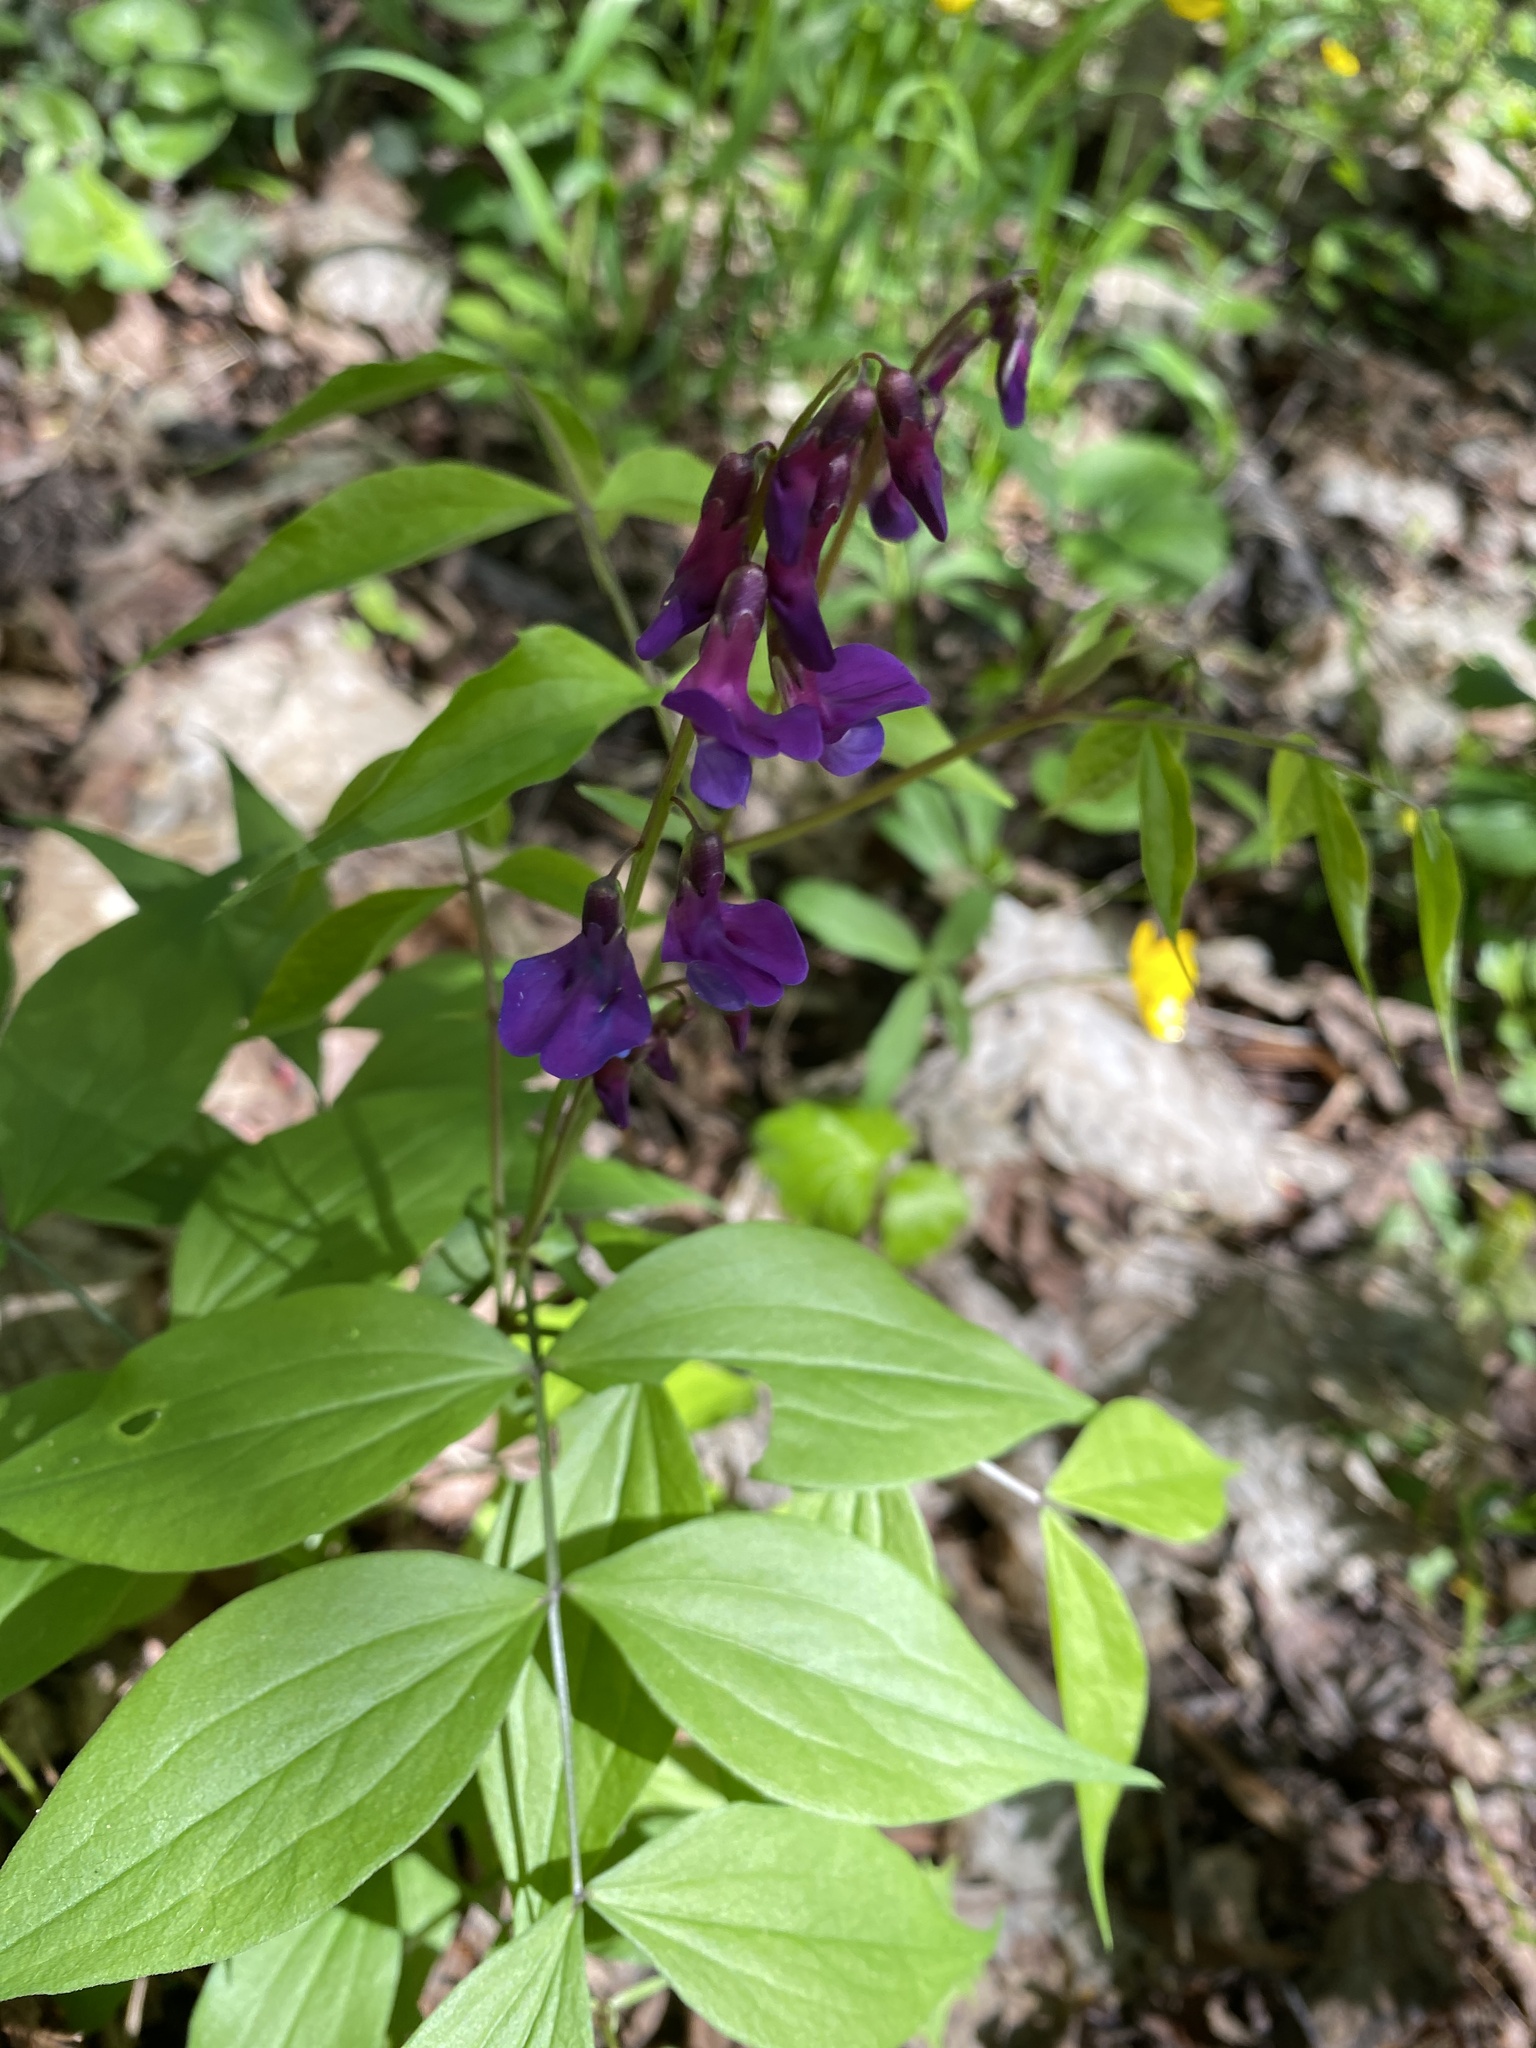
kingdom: Plantae
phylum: Tracheophyta
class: Magnoliopsida
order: Fabales
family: Fabaceae
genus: Lathyrus
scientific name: Lathyrus vernus
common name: Spring pea
